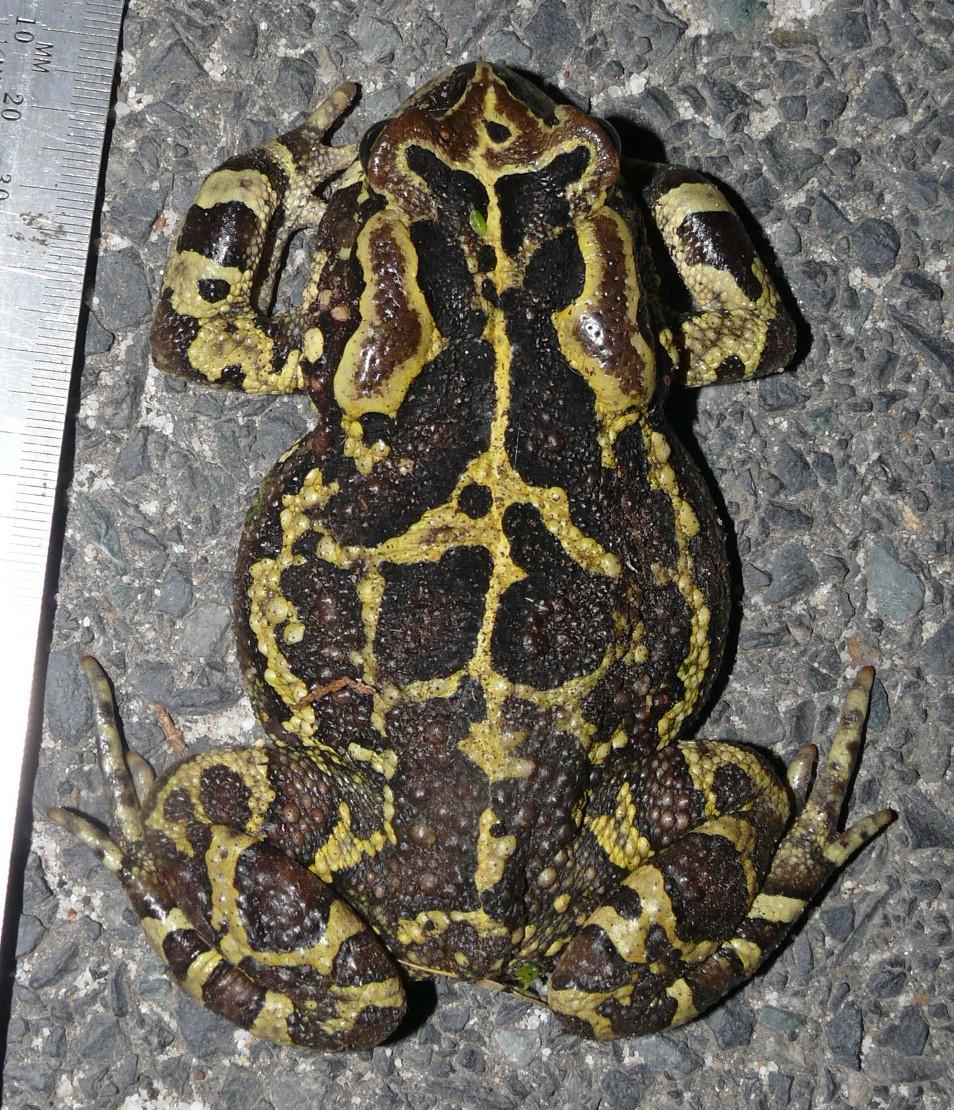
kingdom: Animalia
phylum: Chordata
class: Amphibia
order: Anura
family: Bufonidae
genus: Sclerophrys
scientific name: Sclerophrys pantherina
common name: Panther toad
